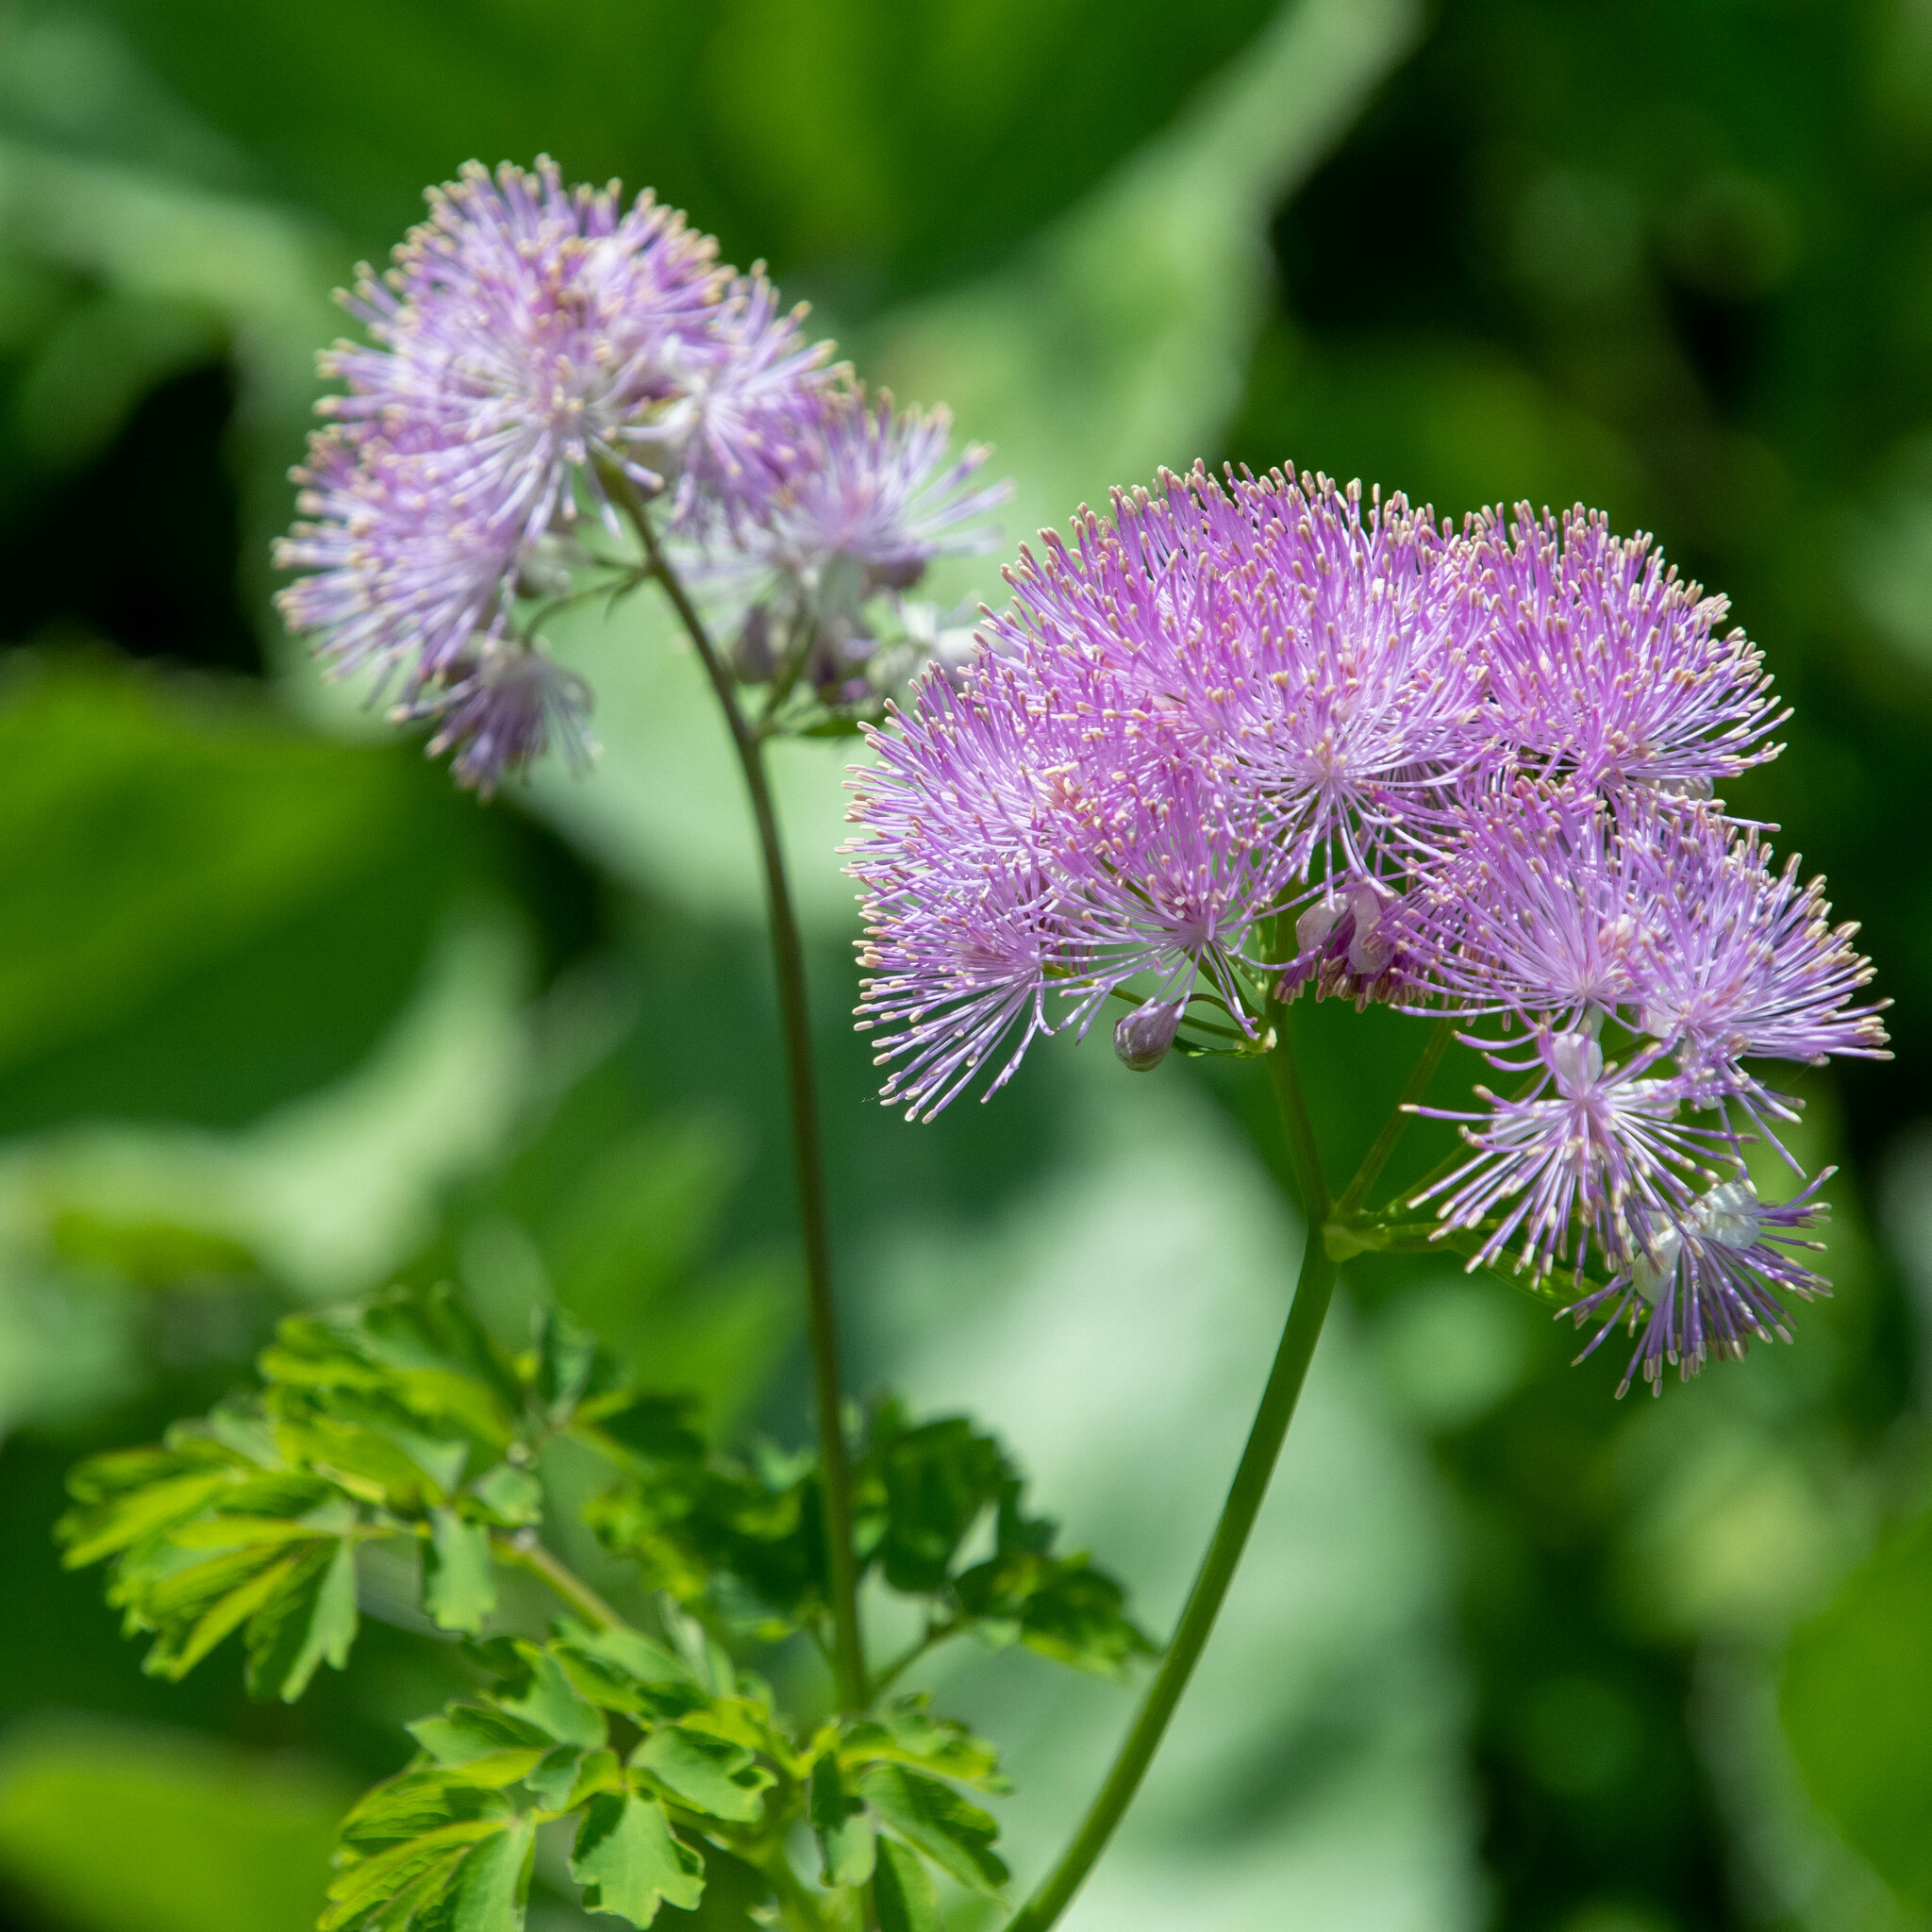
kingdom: Plantae
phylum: Tracheophyta
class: Magnoliopsida
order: Ranunculales
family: Ranunculaceae
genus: Thalictrum
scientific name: Thalictrum aquilegiifolium
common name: French meadow-rue
